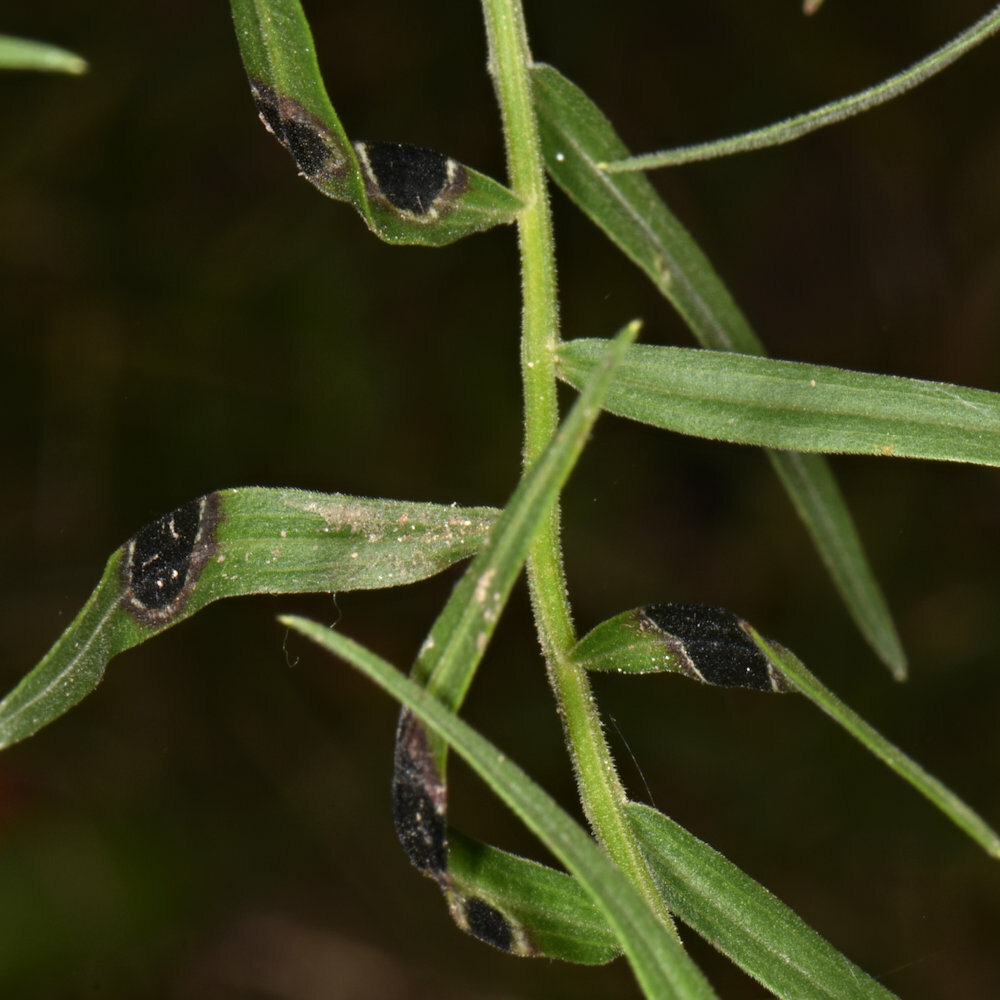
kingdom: Animalia
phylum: Arthropoda
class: Insecta
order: Diptera
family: Cecidomyiidae
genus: Asteromyia
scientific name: Asteromyia euthamiae
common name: Euthamia leaf gall midge
